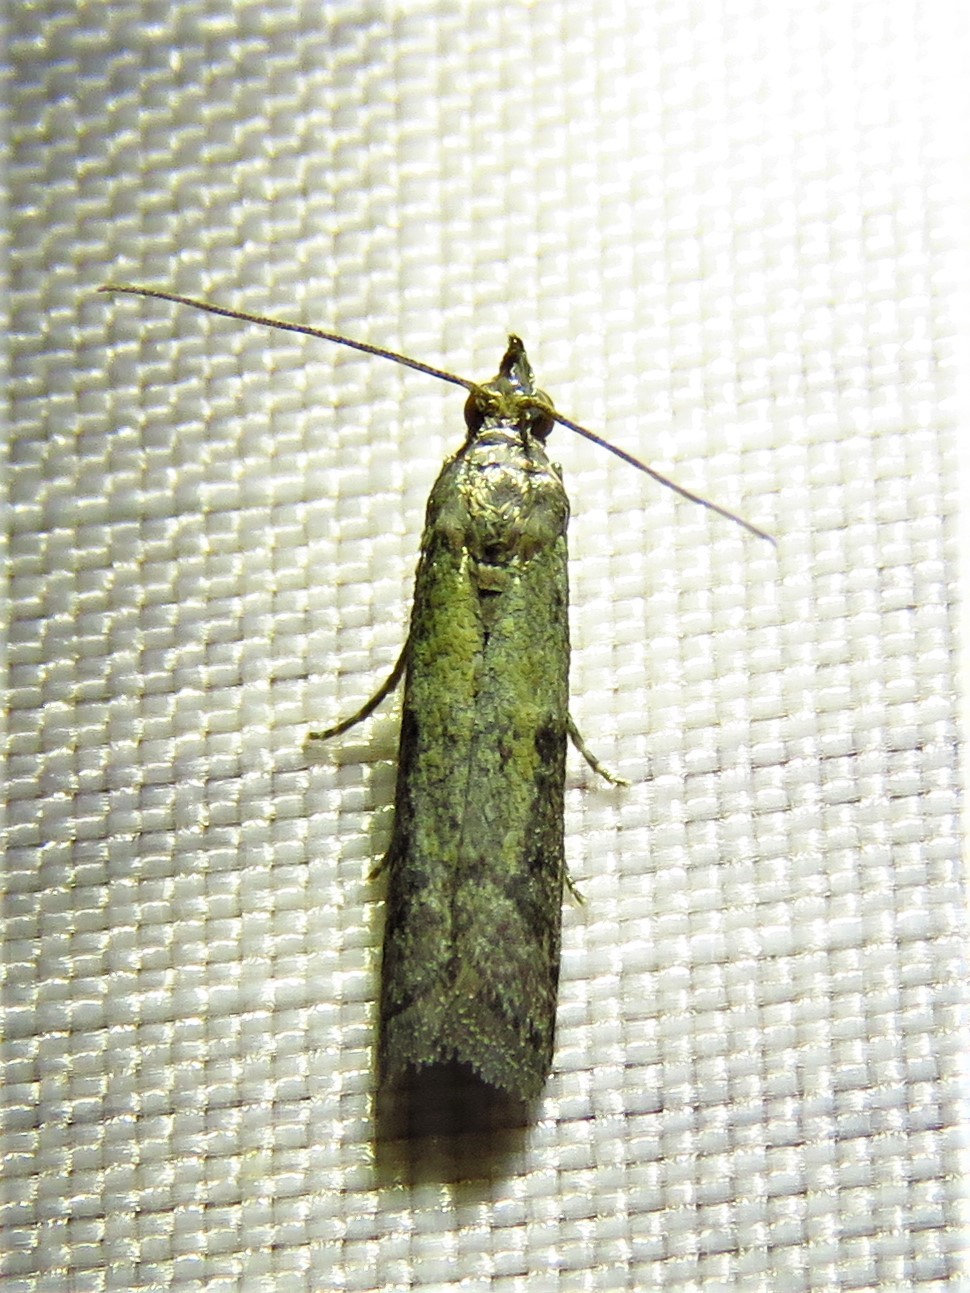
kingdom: Animalia
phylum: Arthropoda
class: Insecta
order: Lepidoptera
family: Pyralidae
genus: Plodia
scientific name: Plodia interpunctella
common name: Indian meal moth
